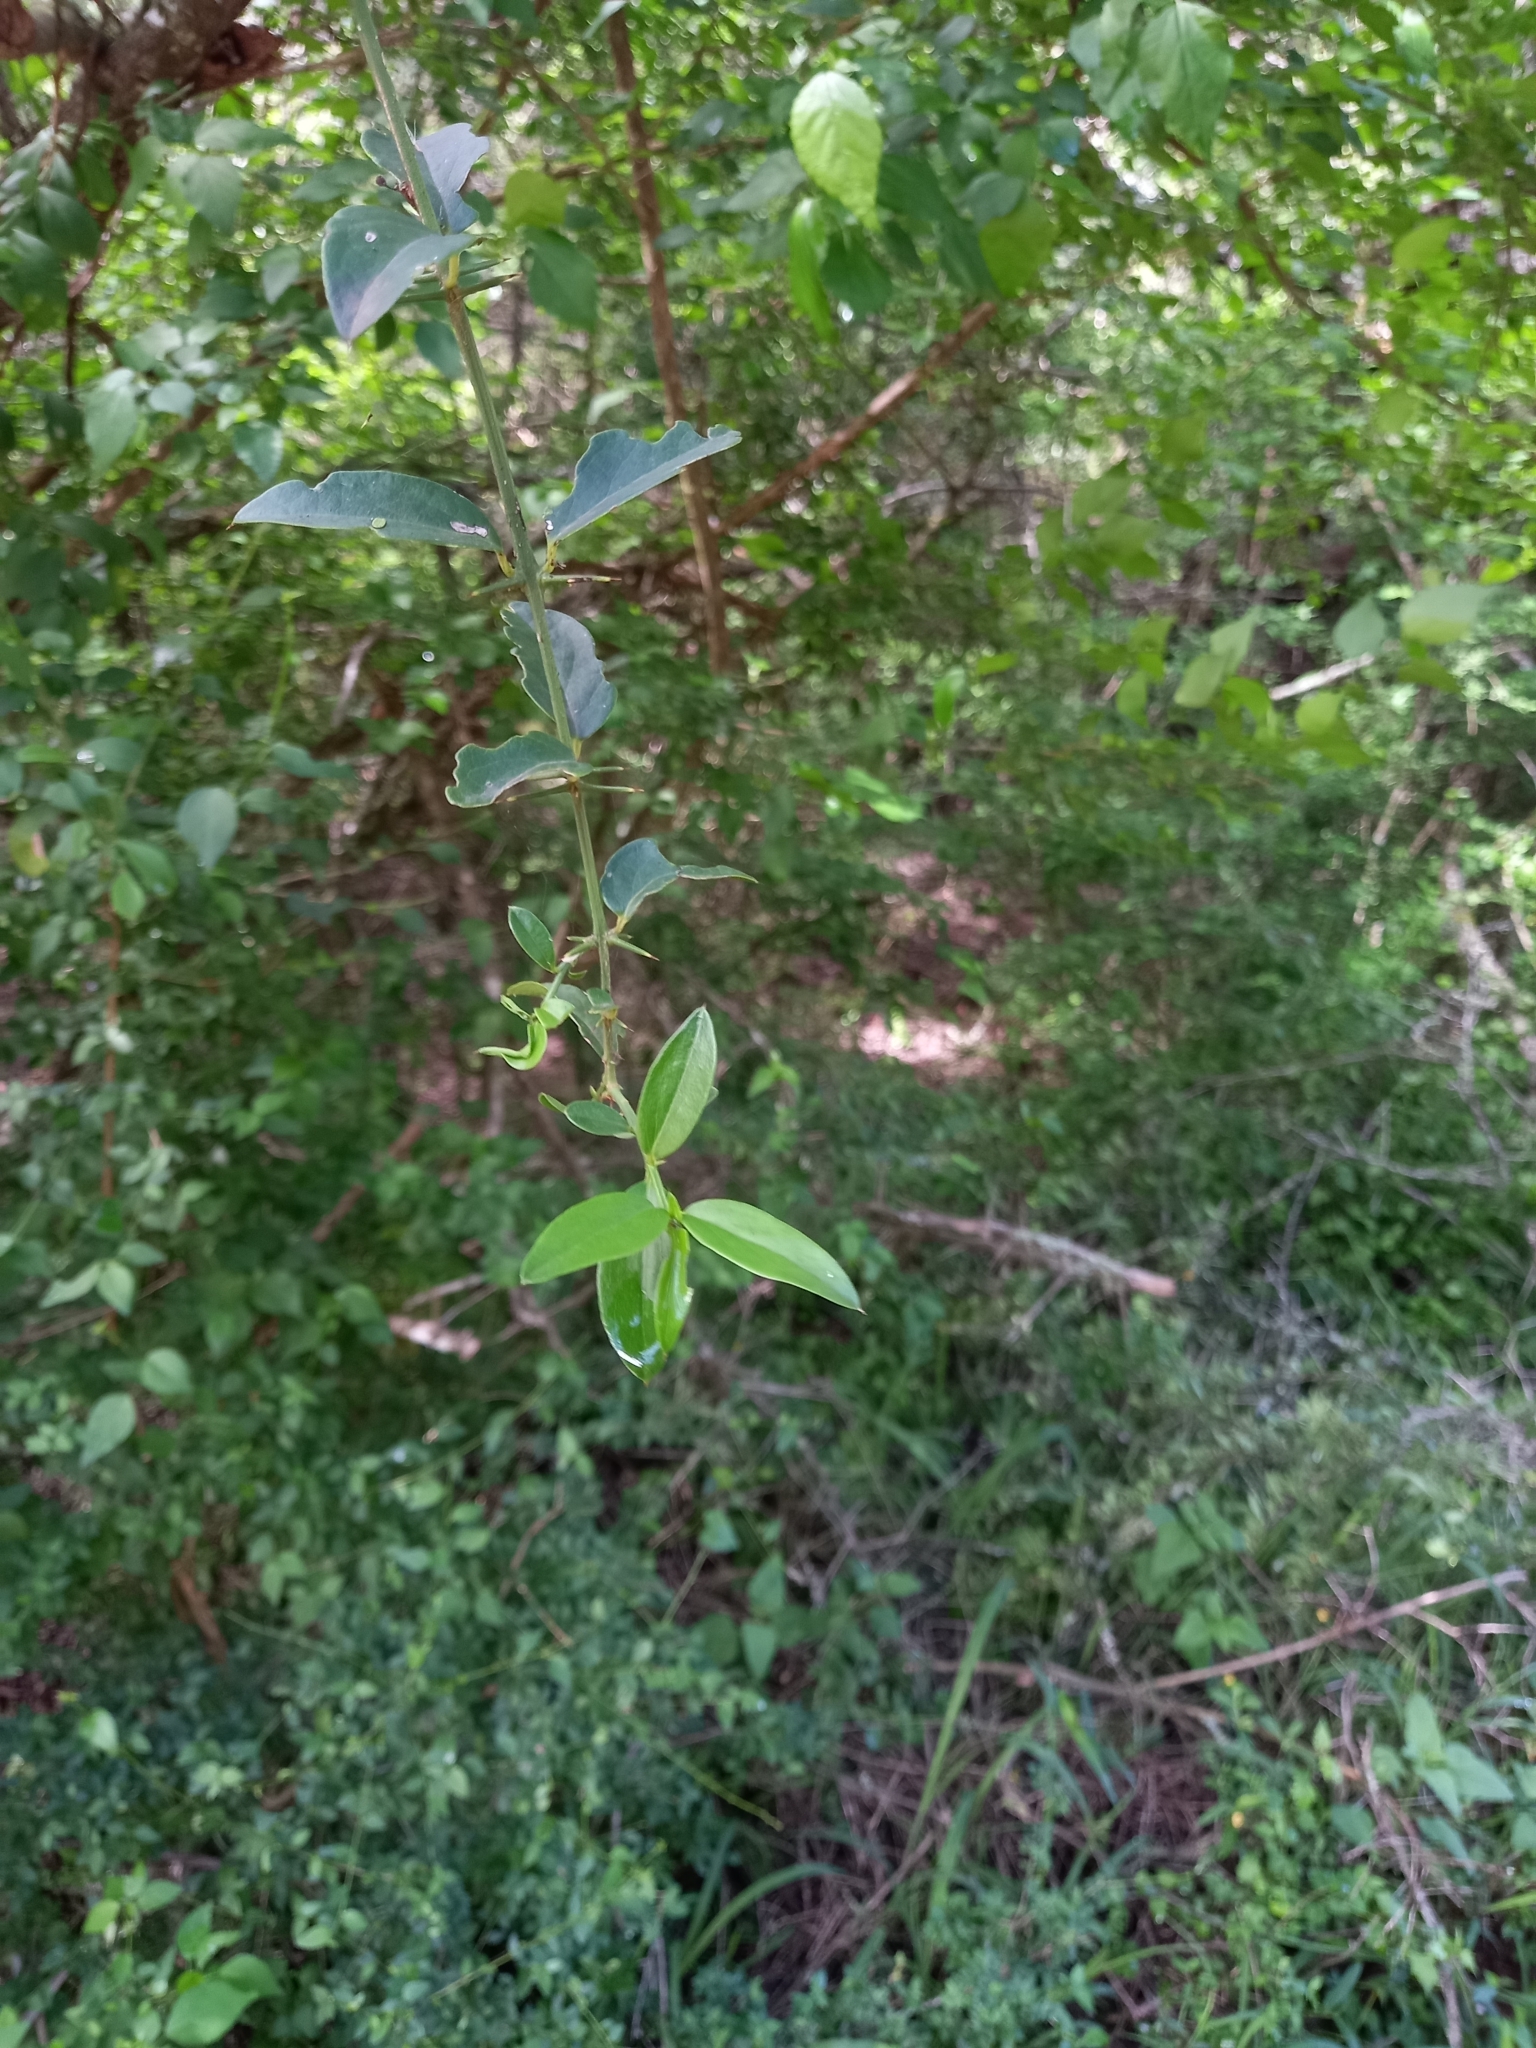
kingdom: Plantae
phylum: Tracheophyta
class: Magnoliopsida
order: Brassicales
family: Salvadoraceae
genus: Azima
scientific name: Azima tetracantha
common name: Needle bush
